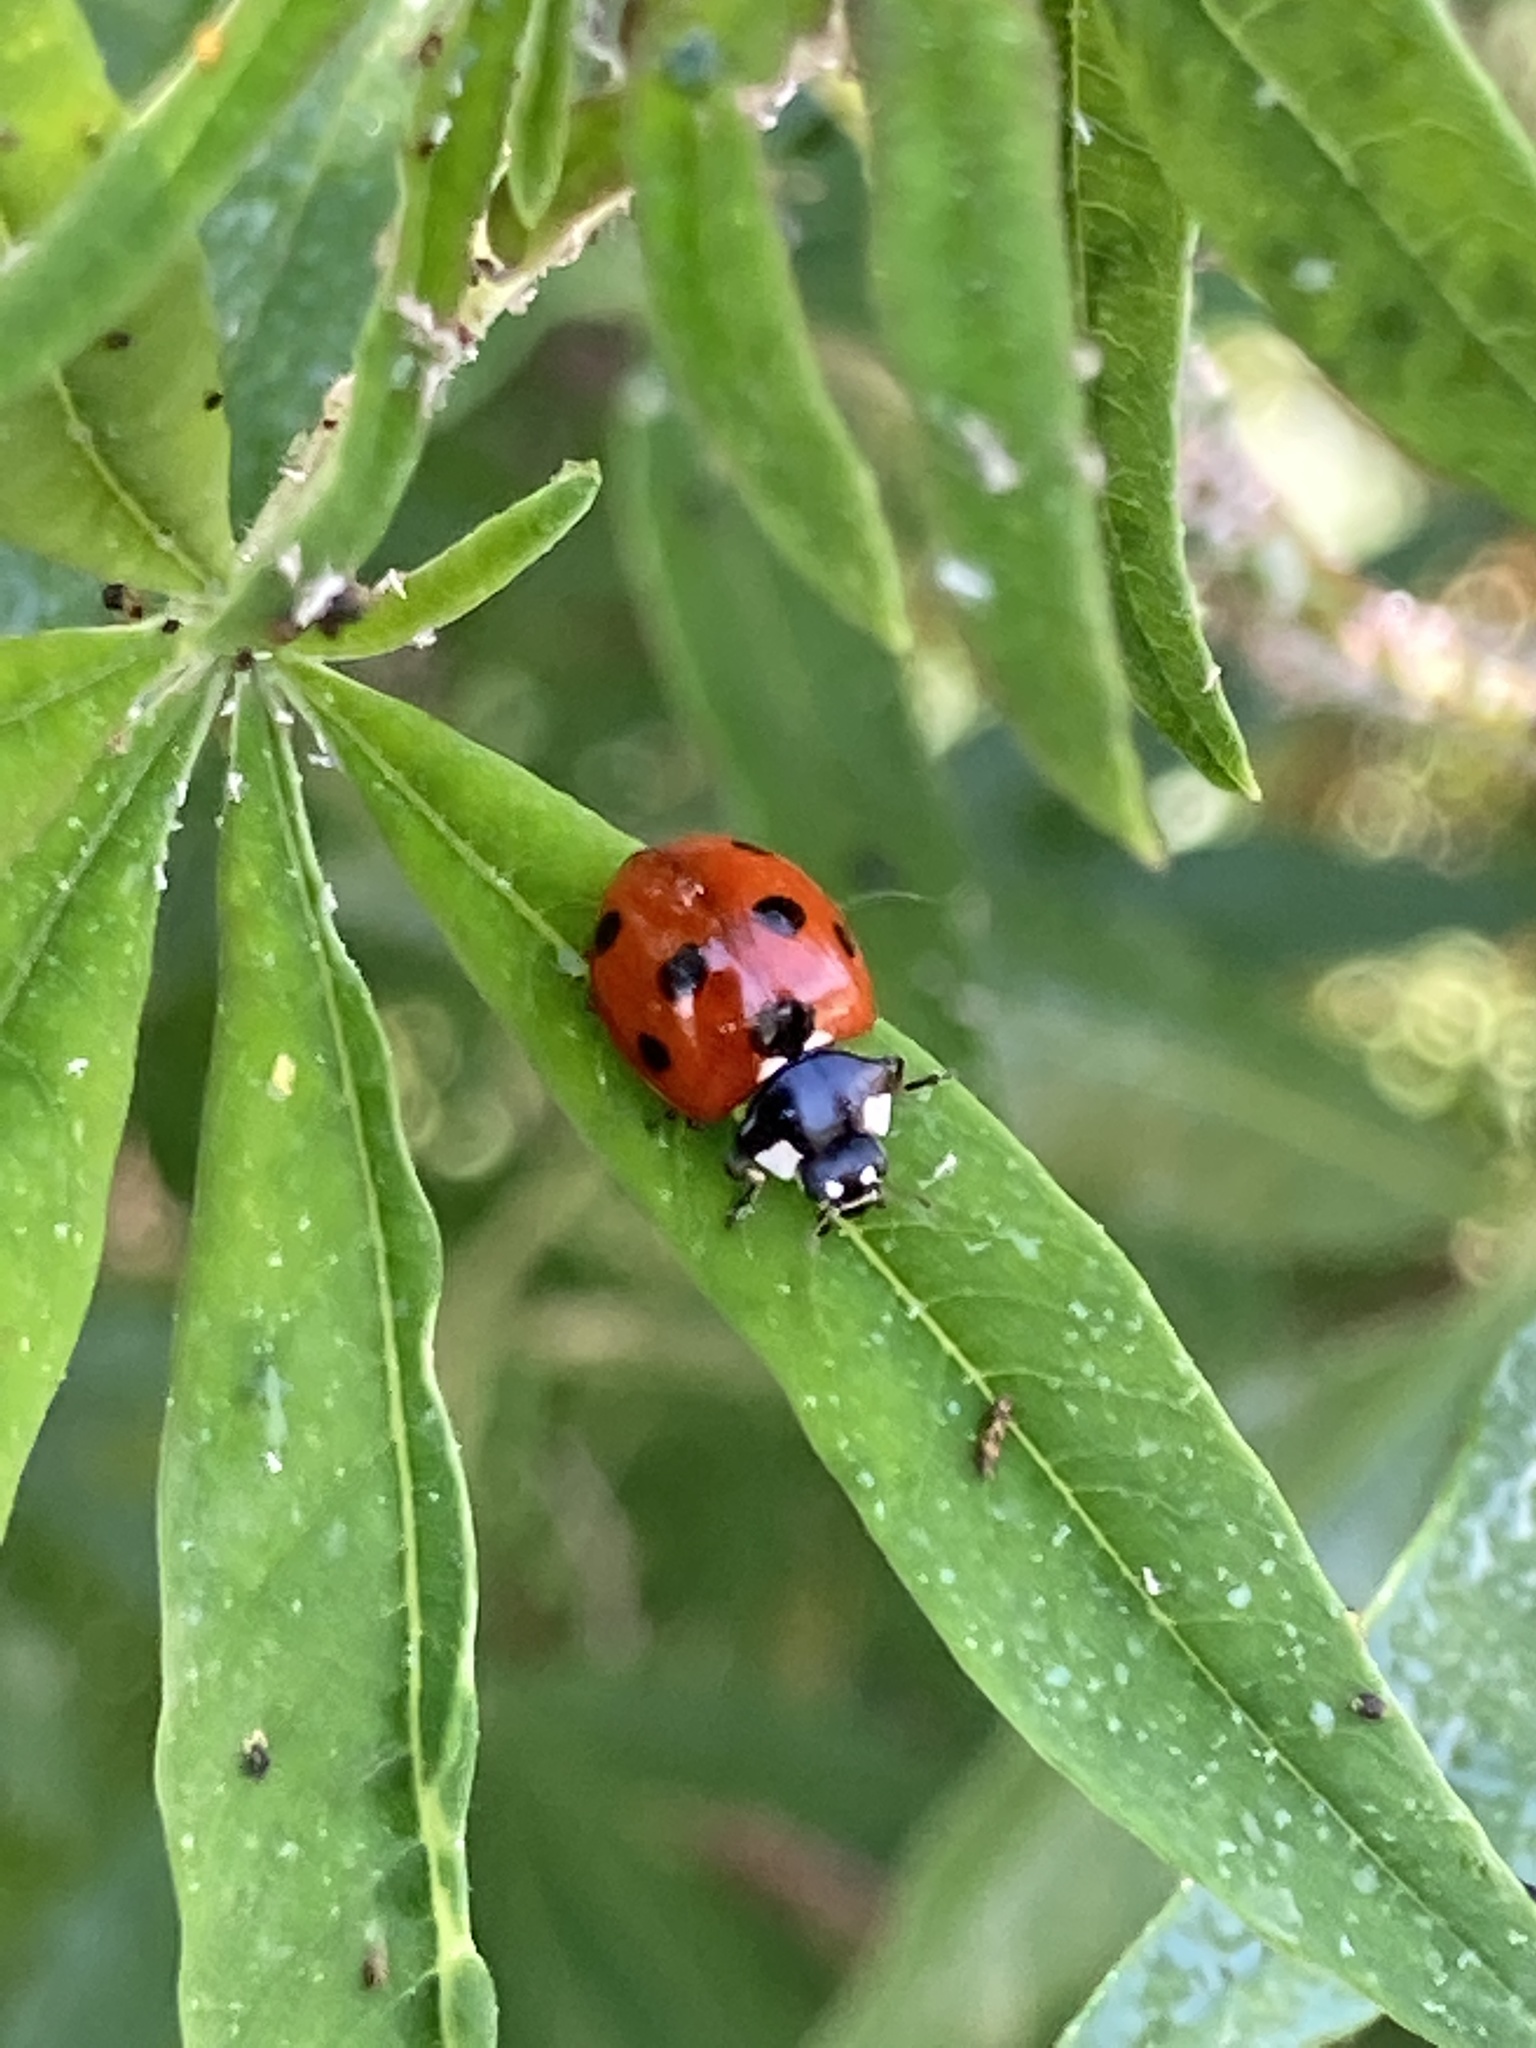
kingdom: Animalia
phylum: Arthropoda
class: Insecta
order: Coleoptera
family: Coccinellidae
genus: Coccinella
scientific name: Coccinella septempunctata
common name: Sevenspotted lady beetle
